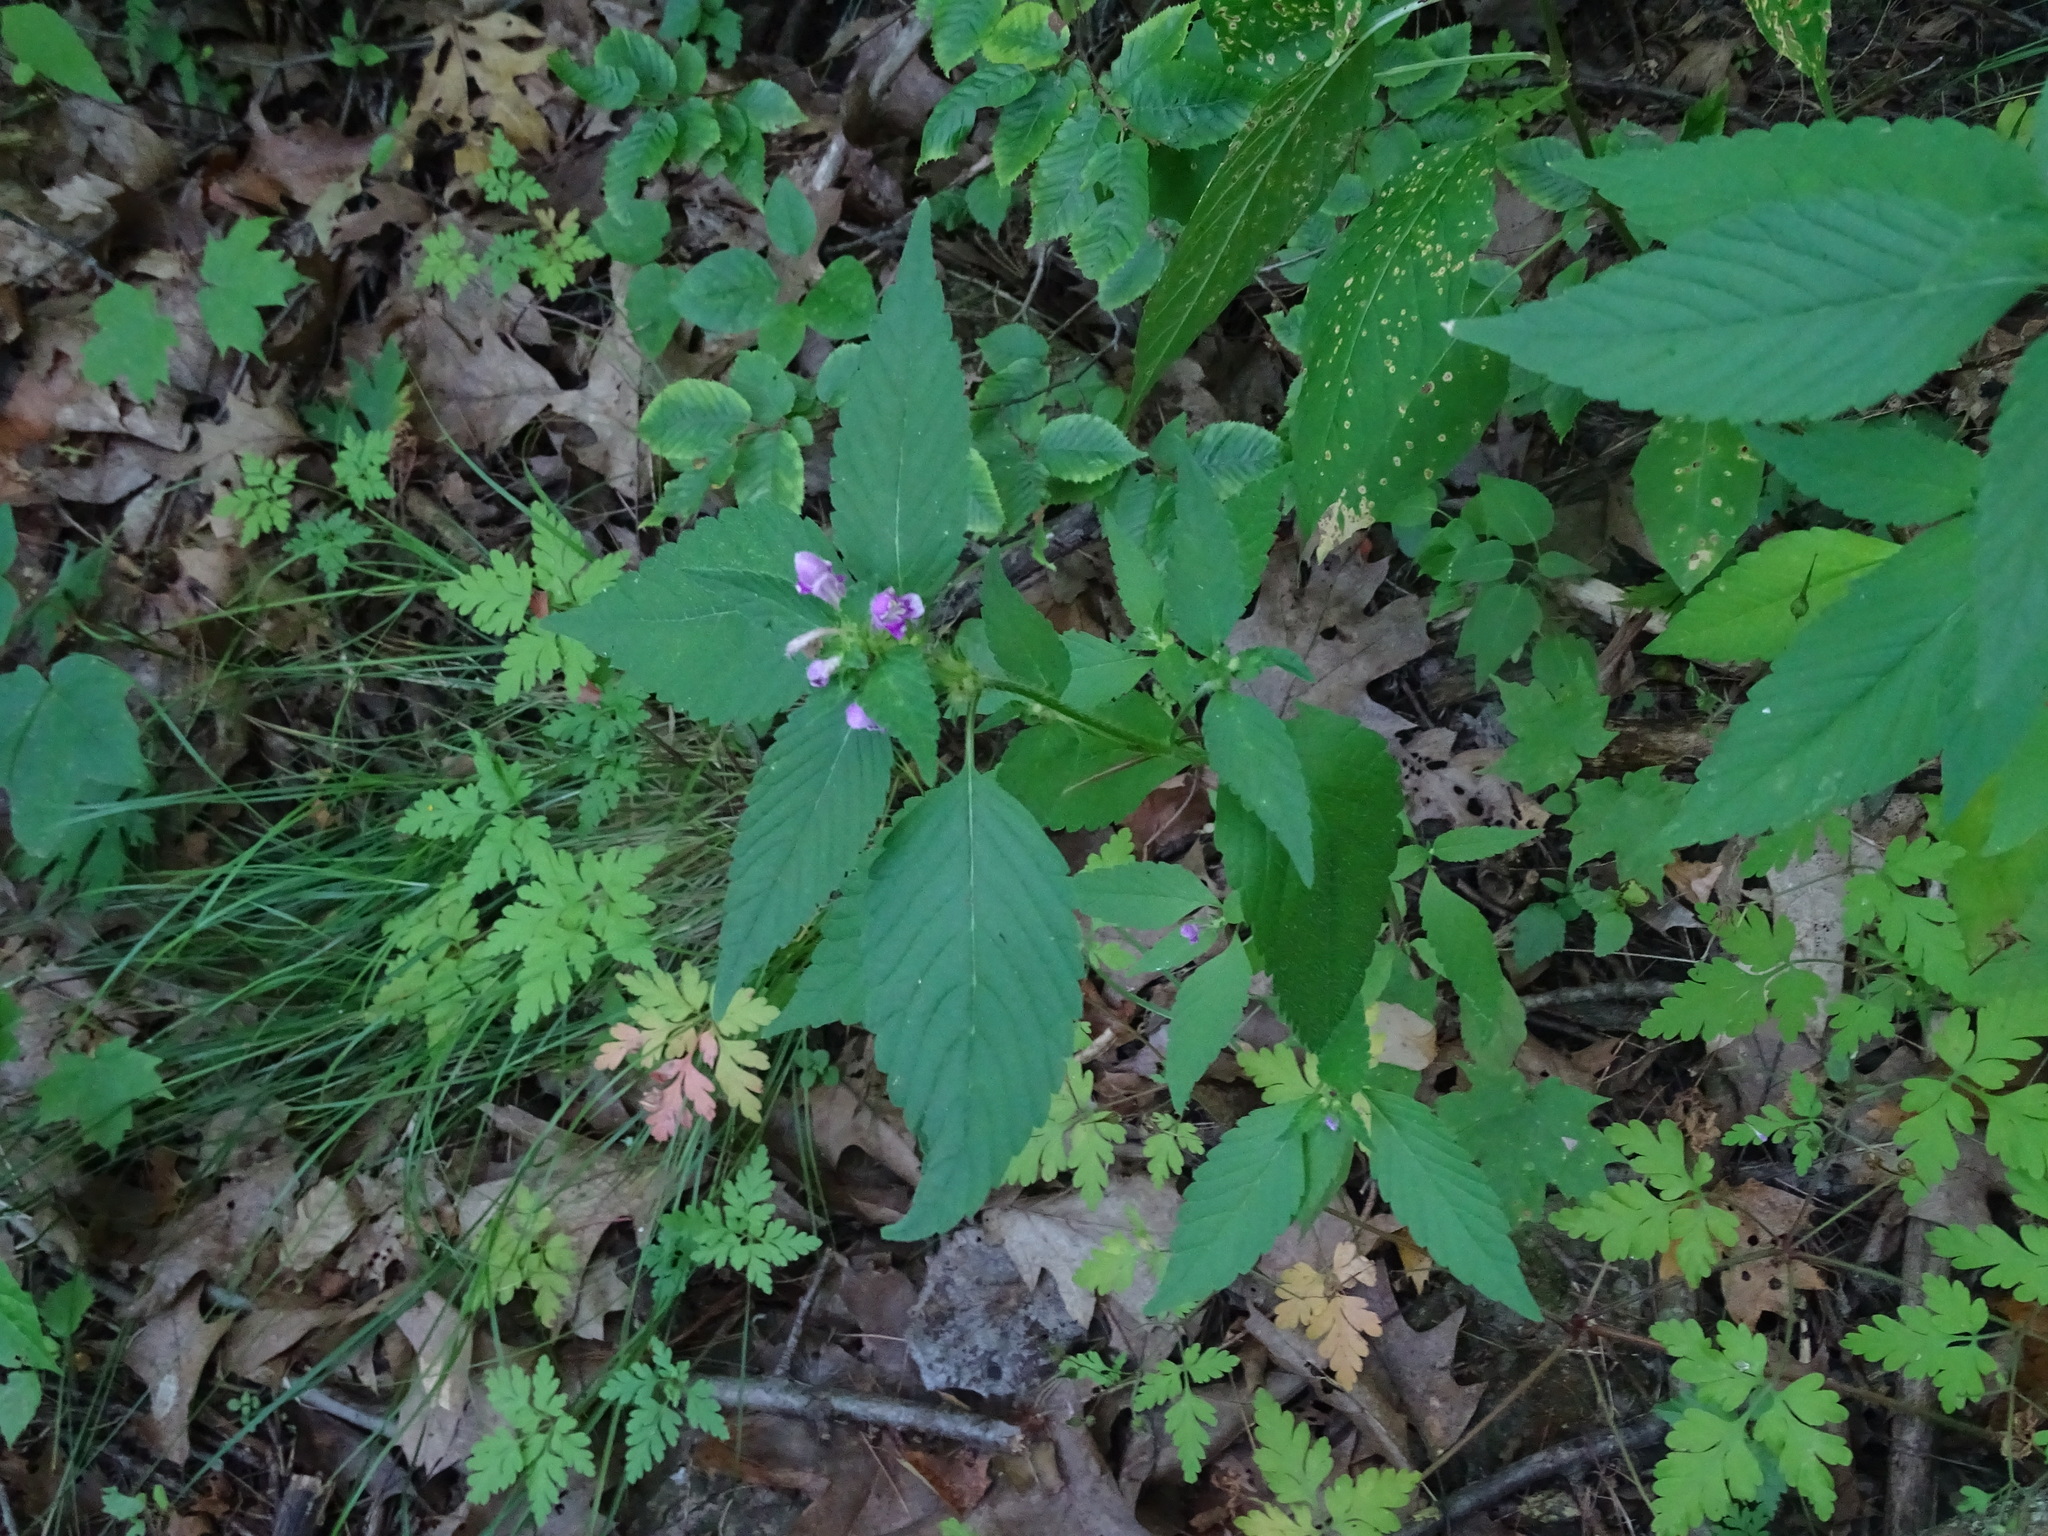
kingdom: Plantae
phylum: Tracheophyta
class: Magnoliopsida
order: Lamiales
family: Lamiaceae
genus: Galeopsis
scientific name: Galeopsis tetrahit
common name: Common hemp-nettle
